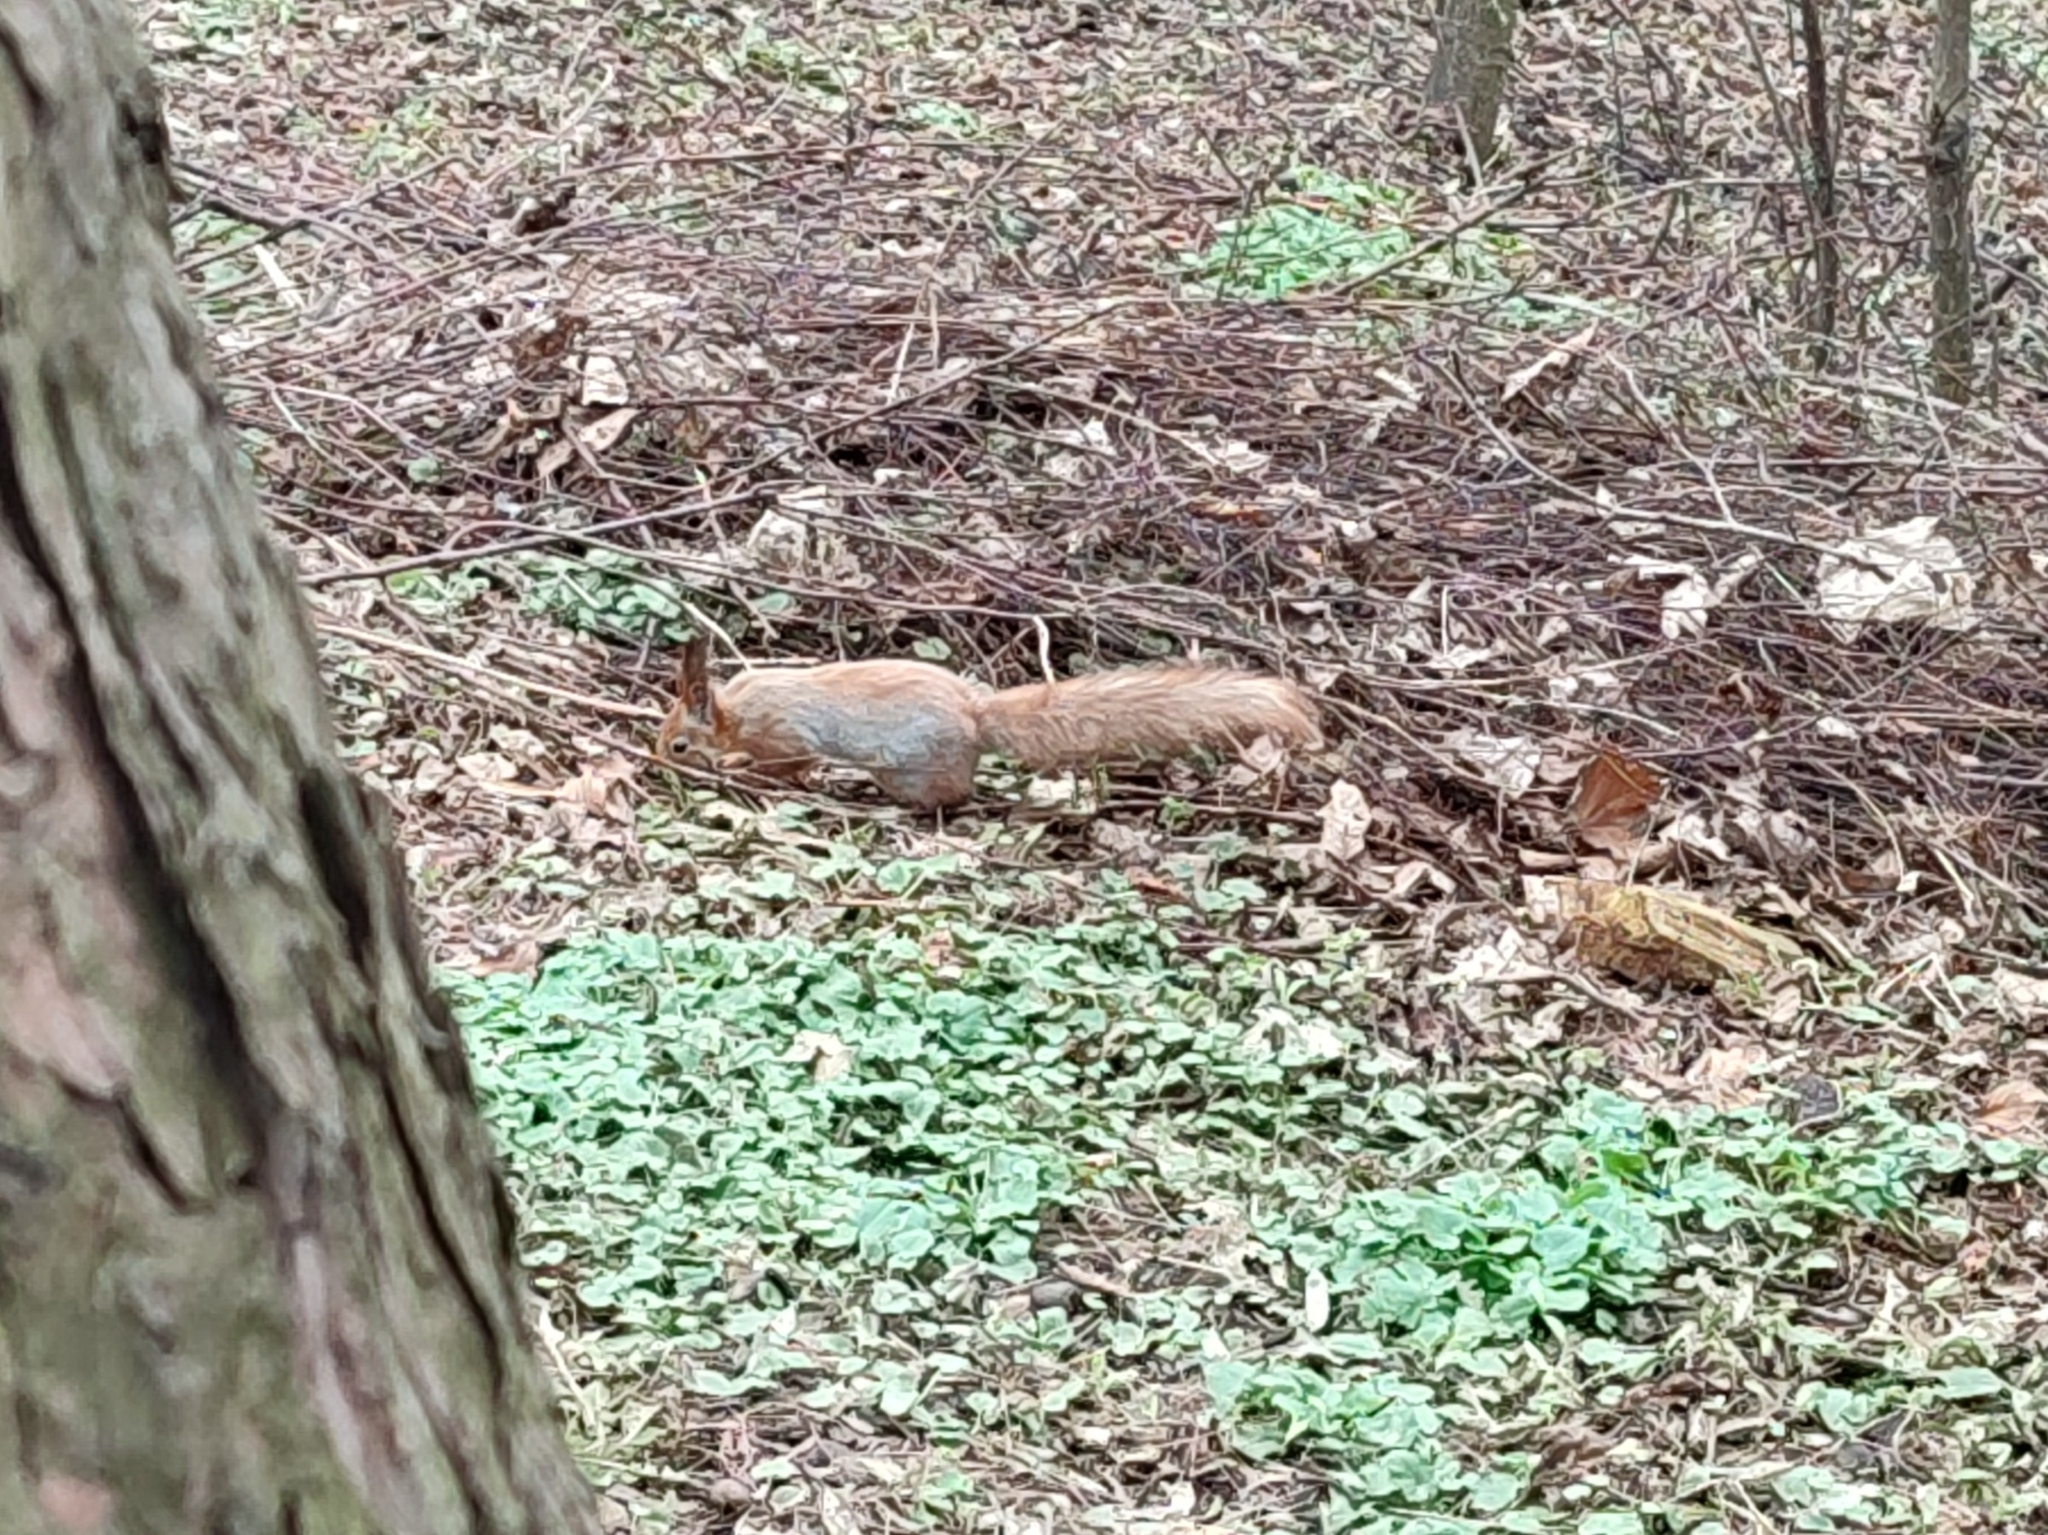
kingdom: Animalia
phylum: Chordata
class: Mammalia
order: Rodentia
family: Sciuridae
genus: Sciurus
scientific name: Sciurus vulgaris
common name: Eurasian red squirrel
